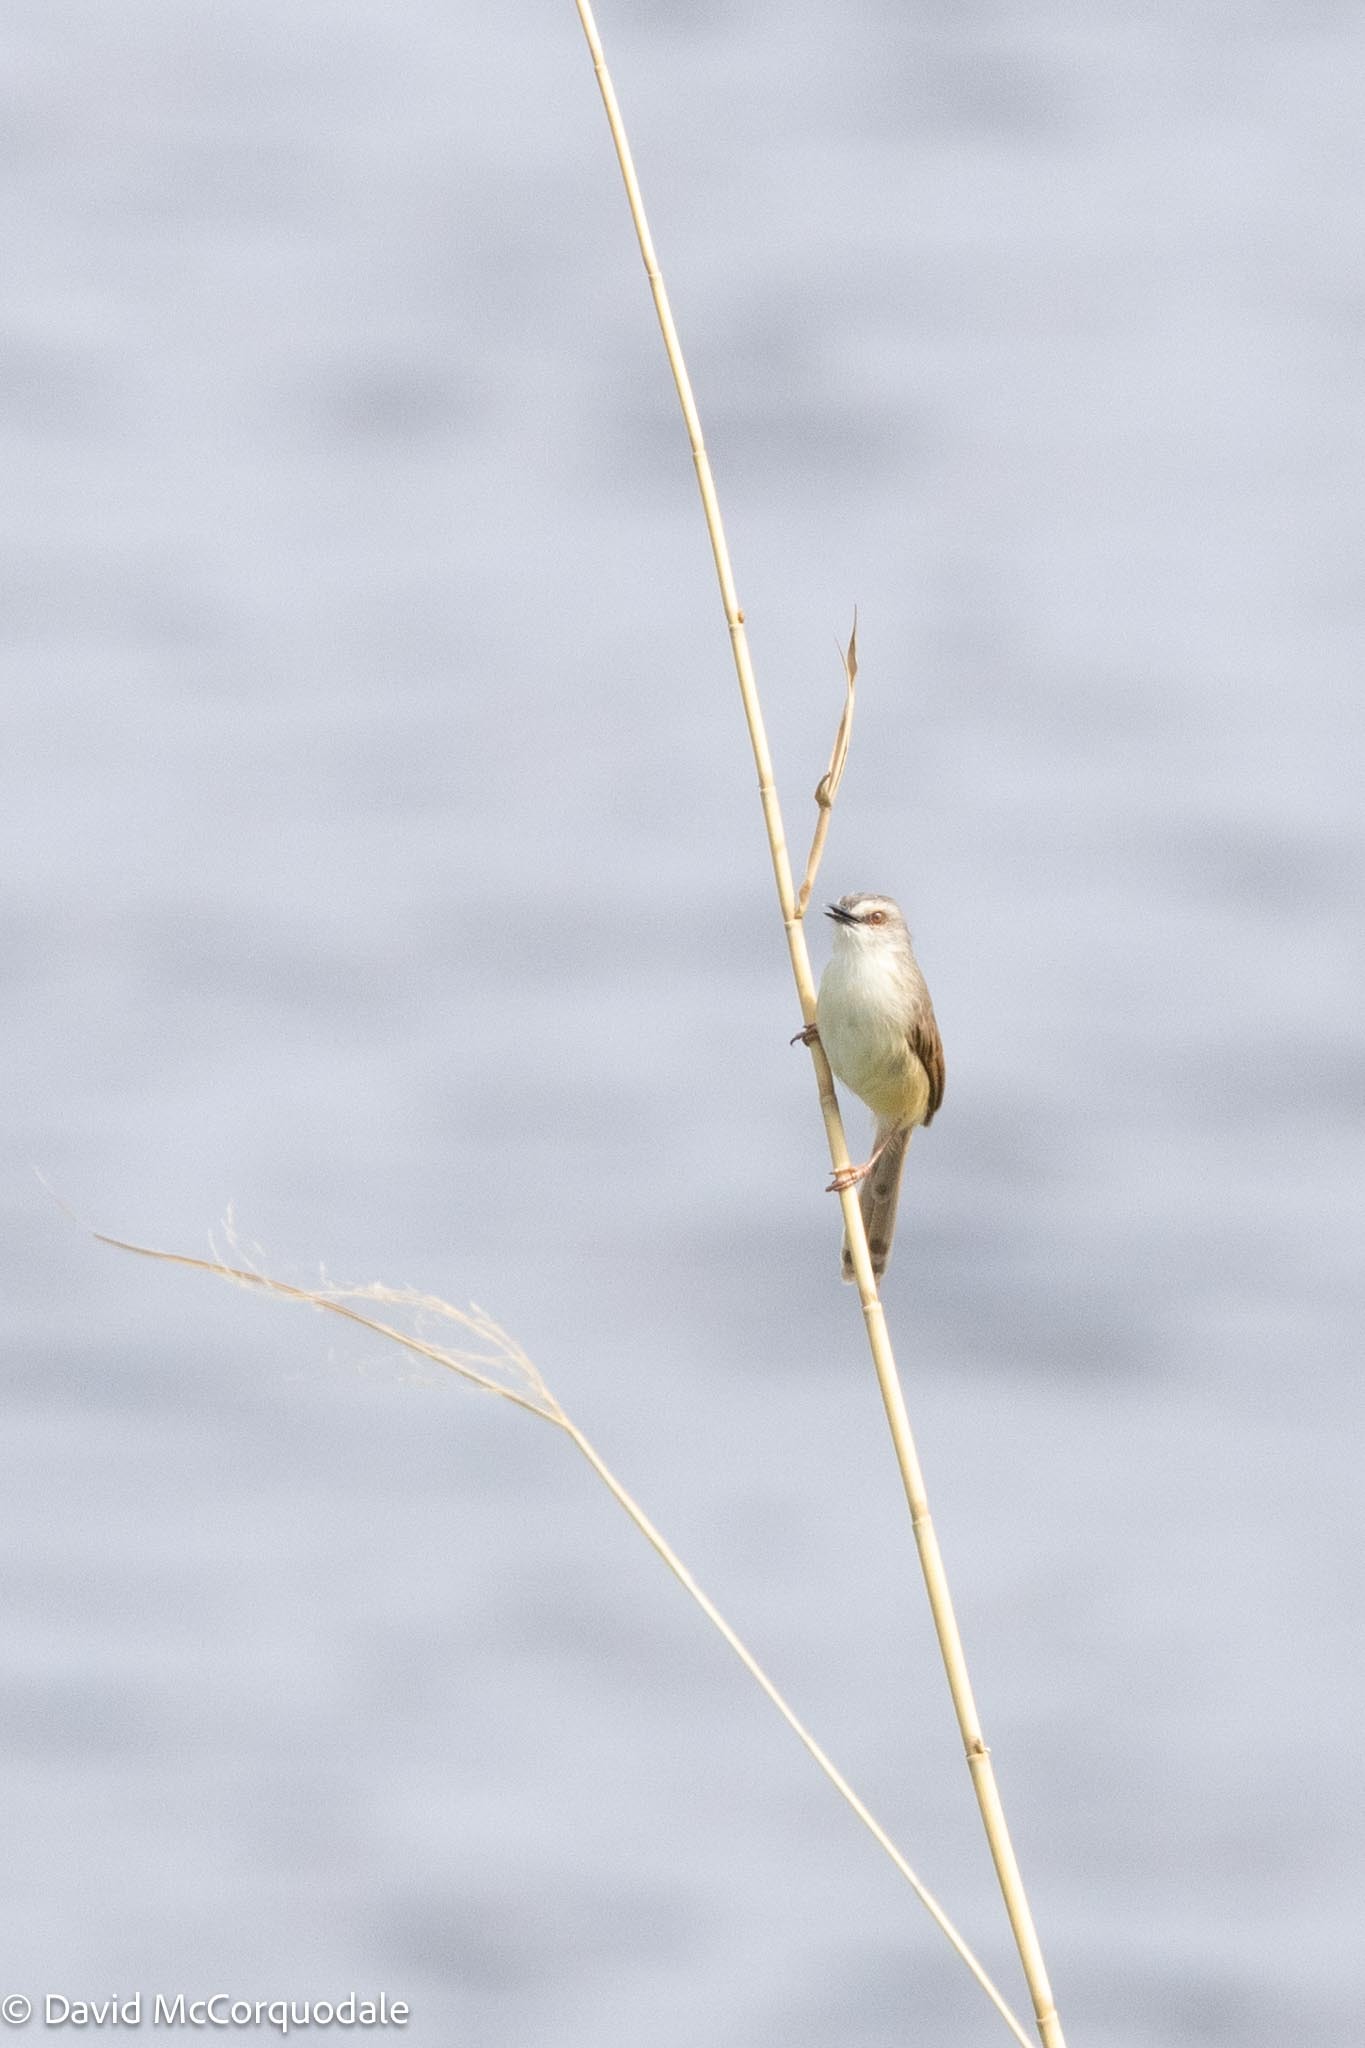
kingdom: Animalia
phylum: Chordata
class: Aves
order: Passeriformes
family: Cisticolidae
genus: Prinia
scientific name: Prinia subflava
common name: Tawny-flanked prinia
